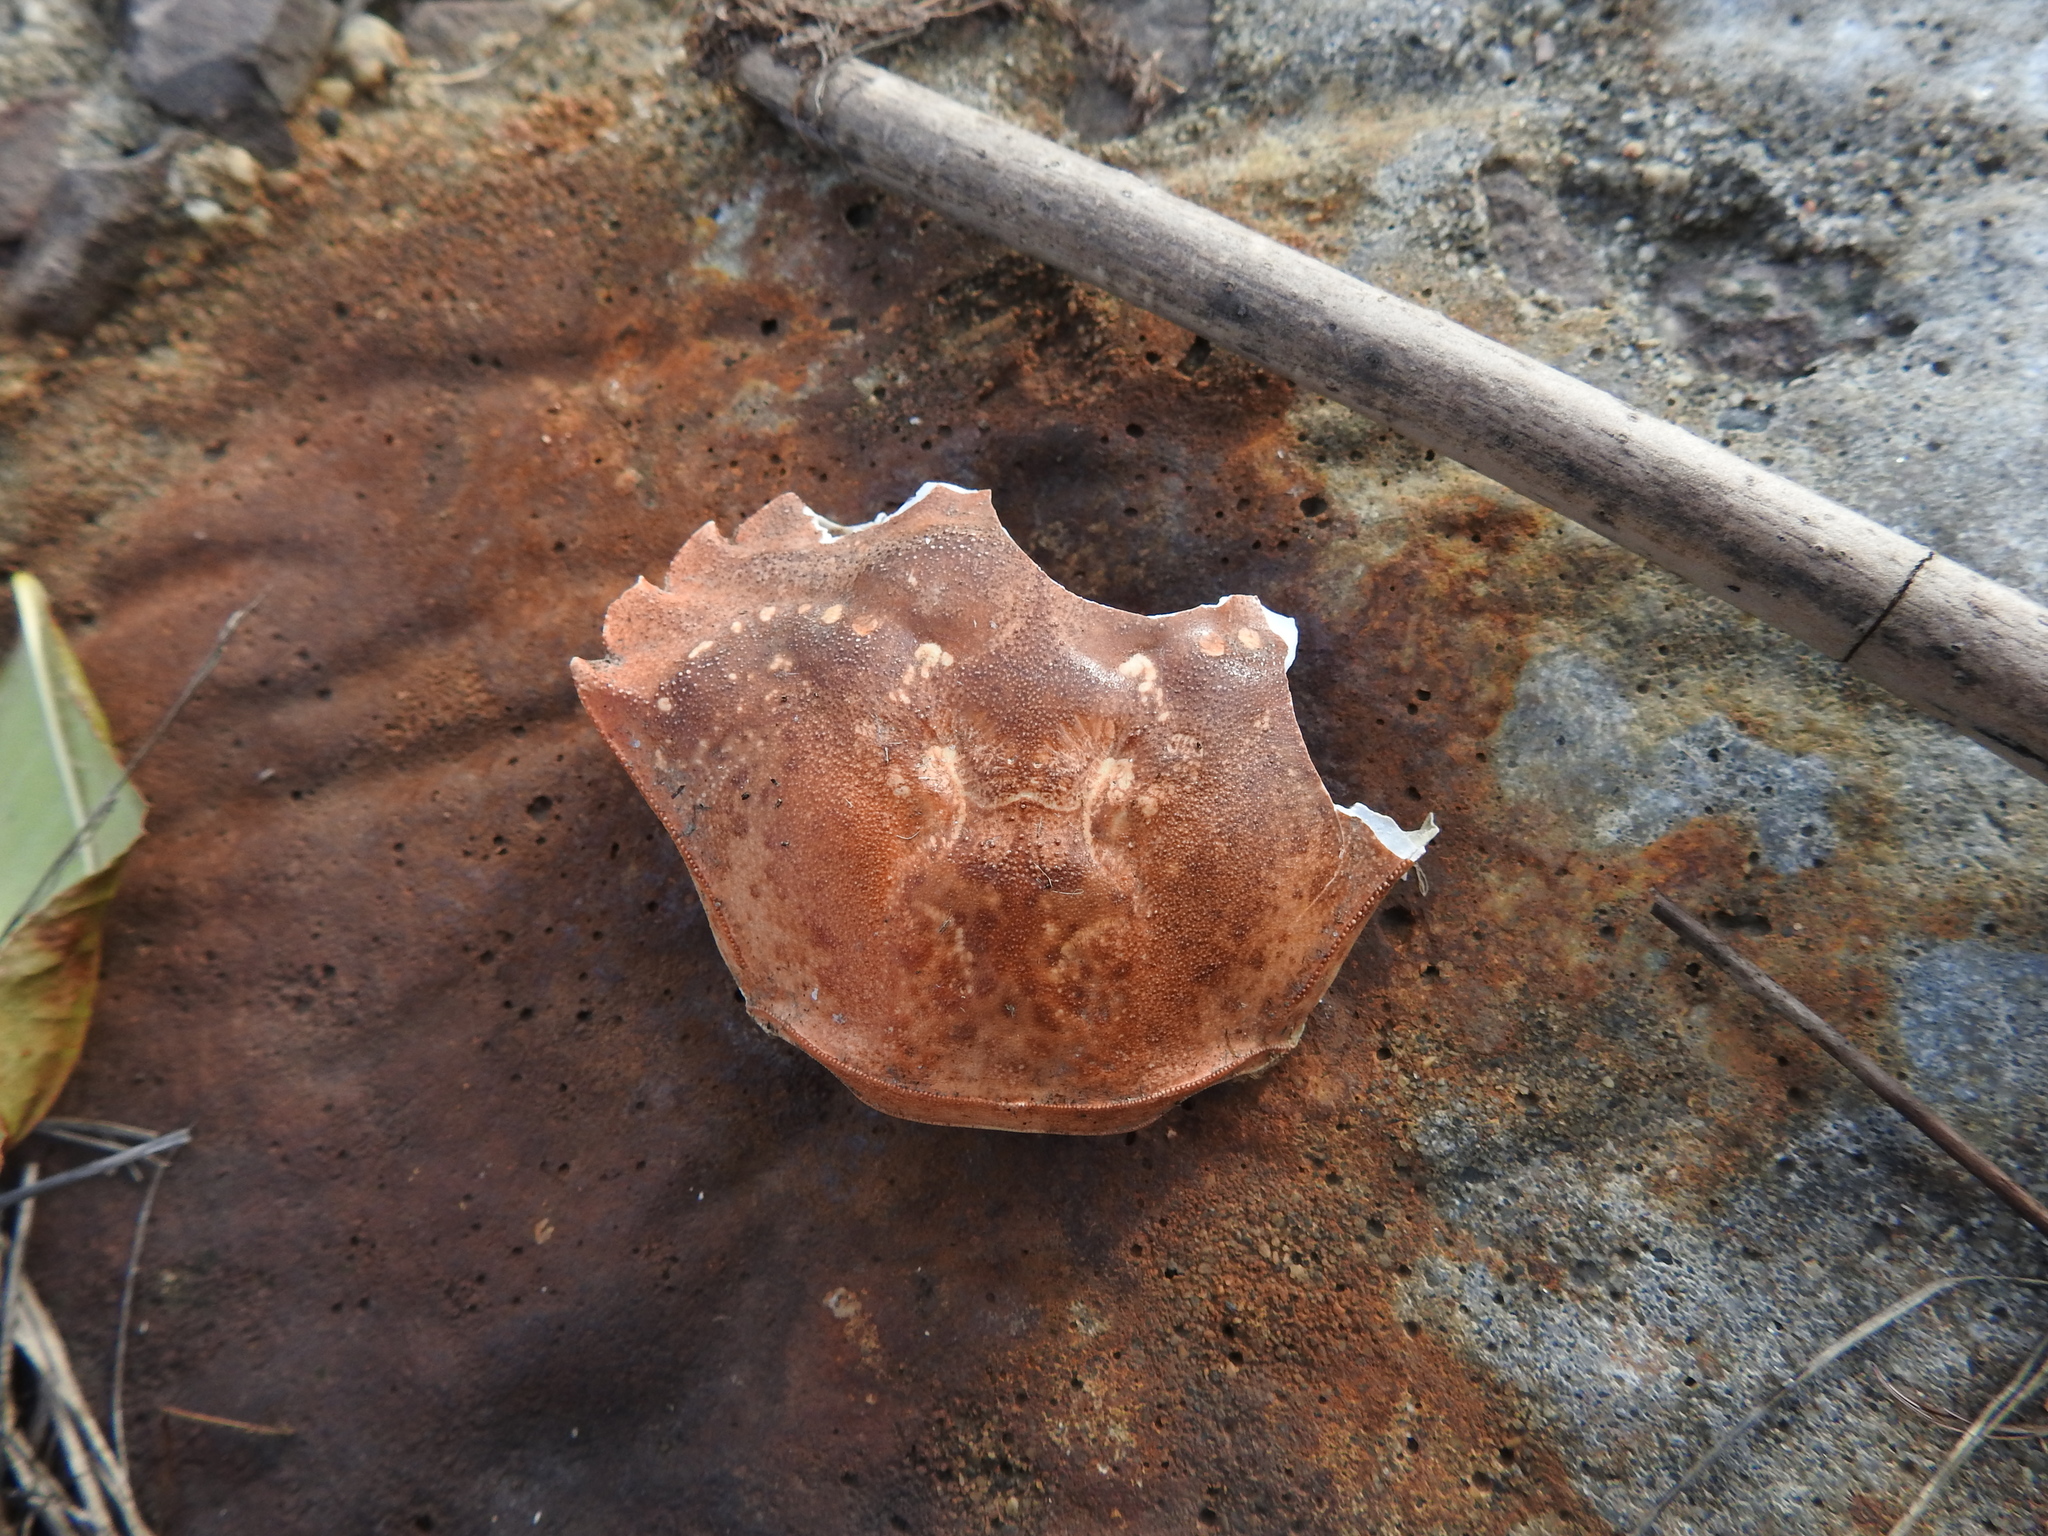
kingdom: Animalia
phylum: Arthropoda
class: Malacostraca
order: Decapoda
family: Carcinidae
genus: Carcinus
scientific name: Carcinus maenas
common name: European green crab
